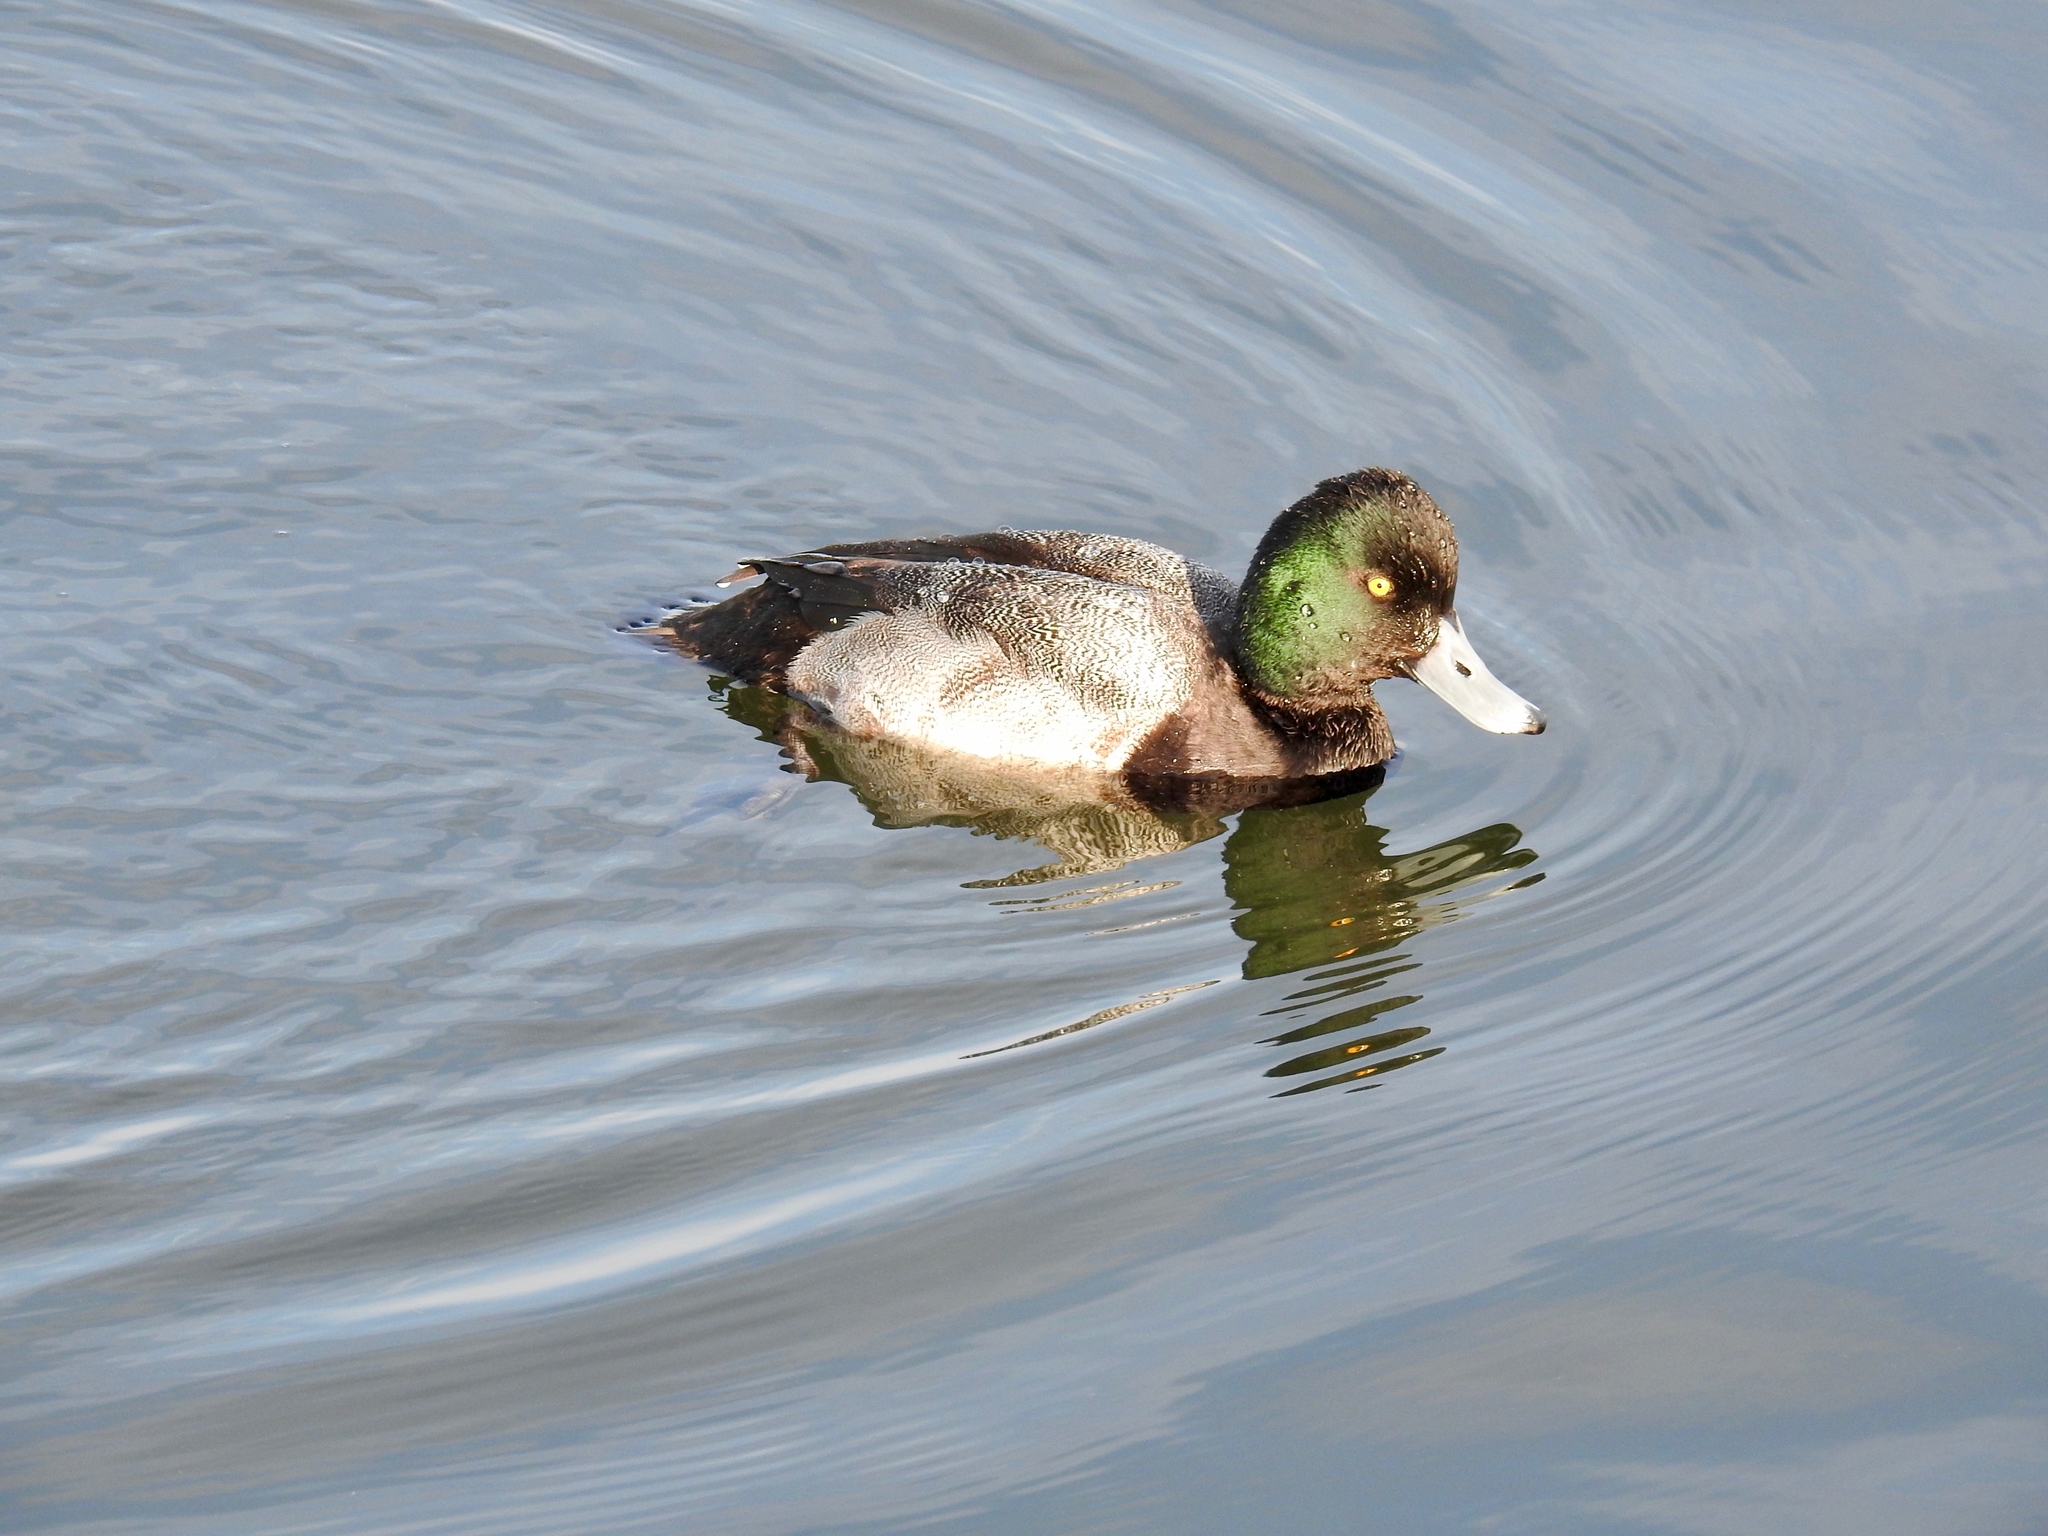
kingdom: Animalia
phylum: Chordata
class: Aves
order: Anseriformes
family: Anatidae
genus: Aythya
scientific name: Aythya affinis
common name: Lesser scaup
